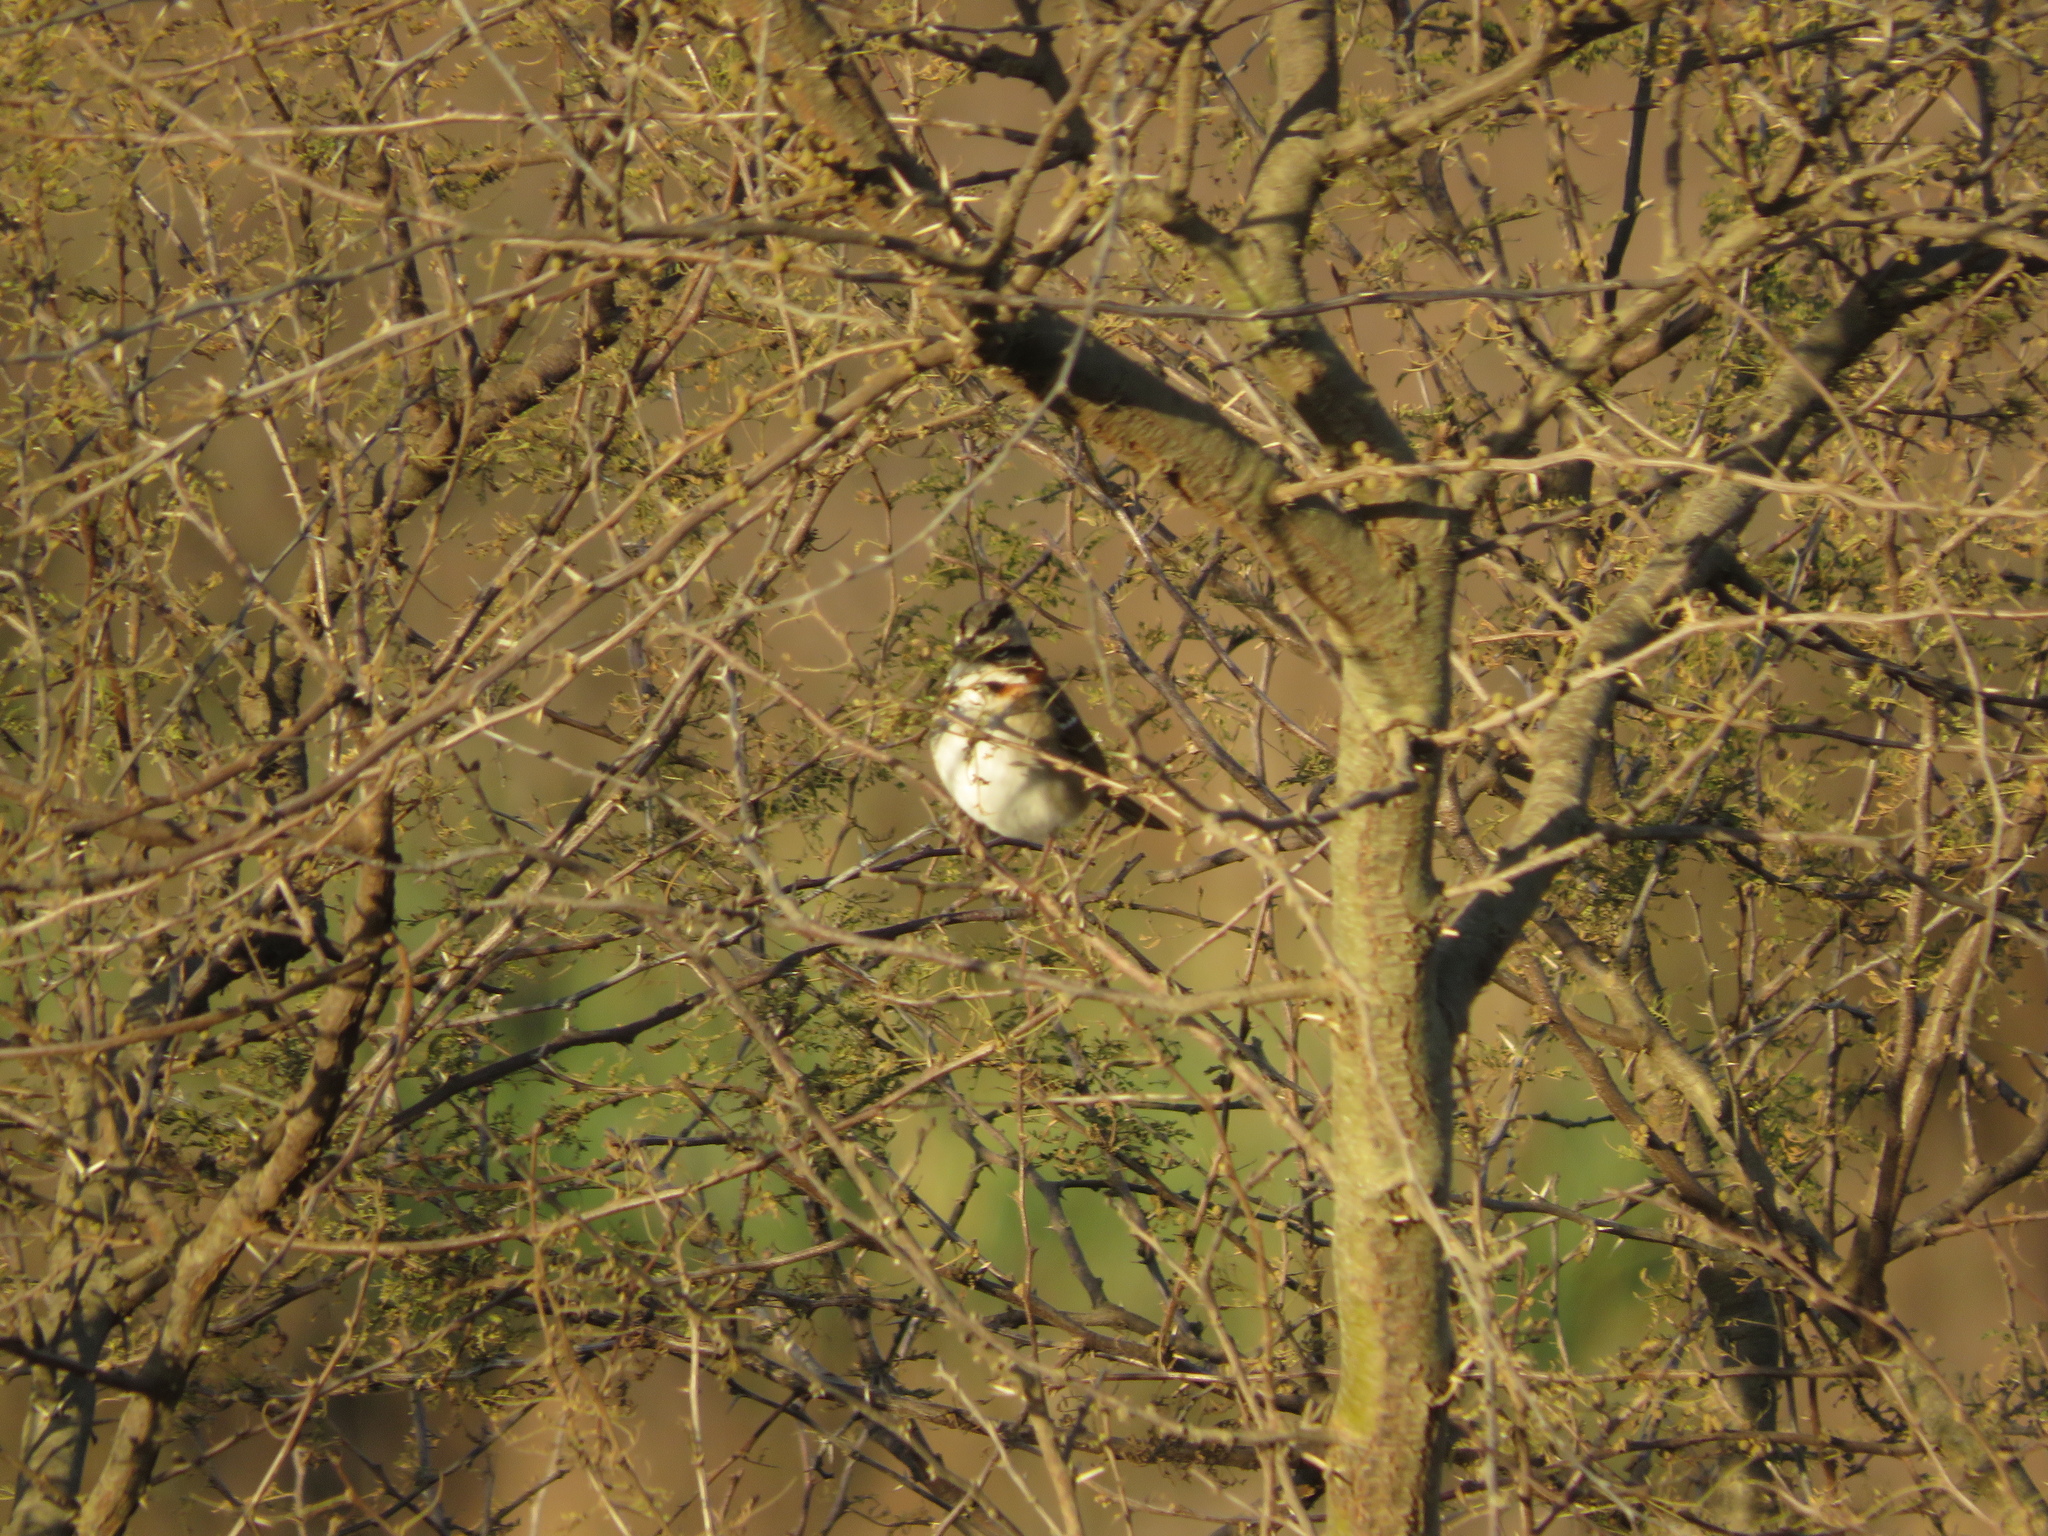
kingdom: Animalia
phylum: Chordata
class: Aves
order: Passeriformes
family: Passerellidae
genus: Zonotrichia
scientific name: Zonotrichia capensis
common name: Rufous-collared sparrow
